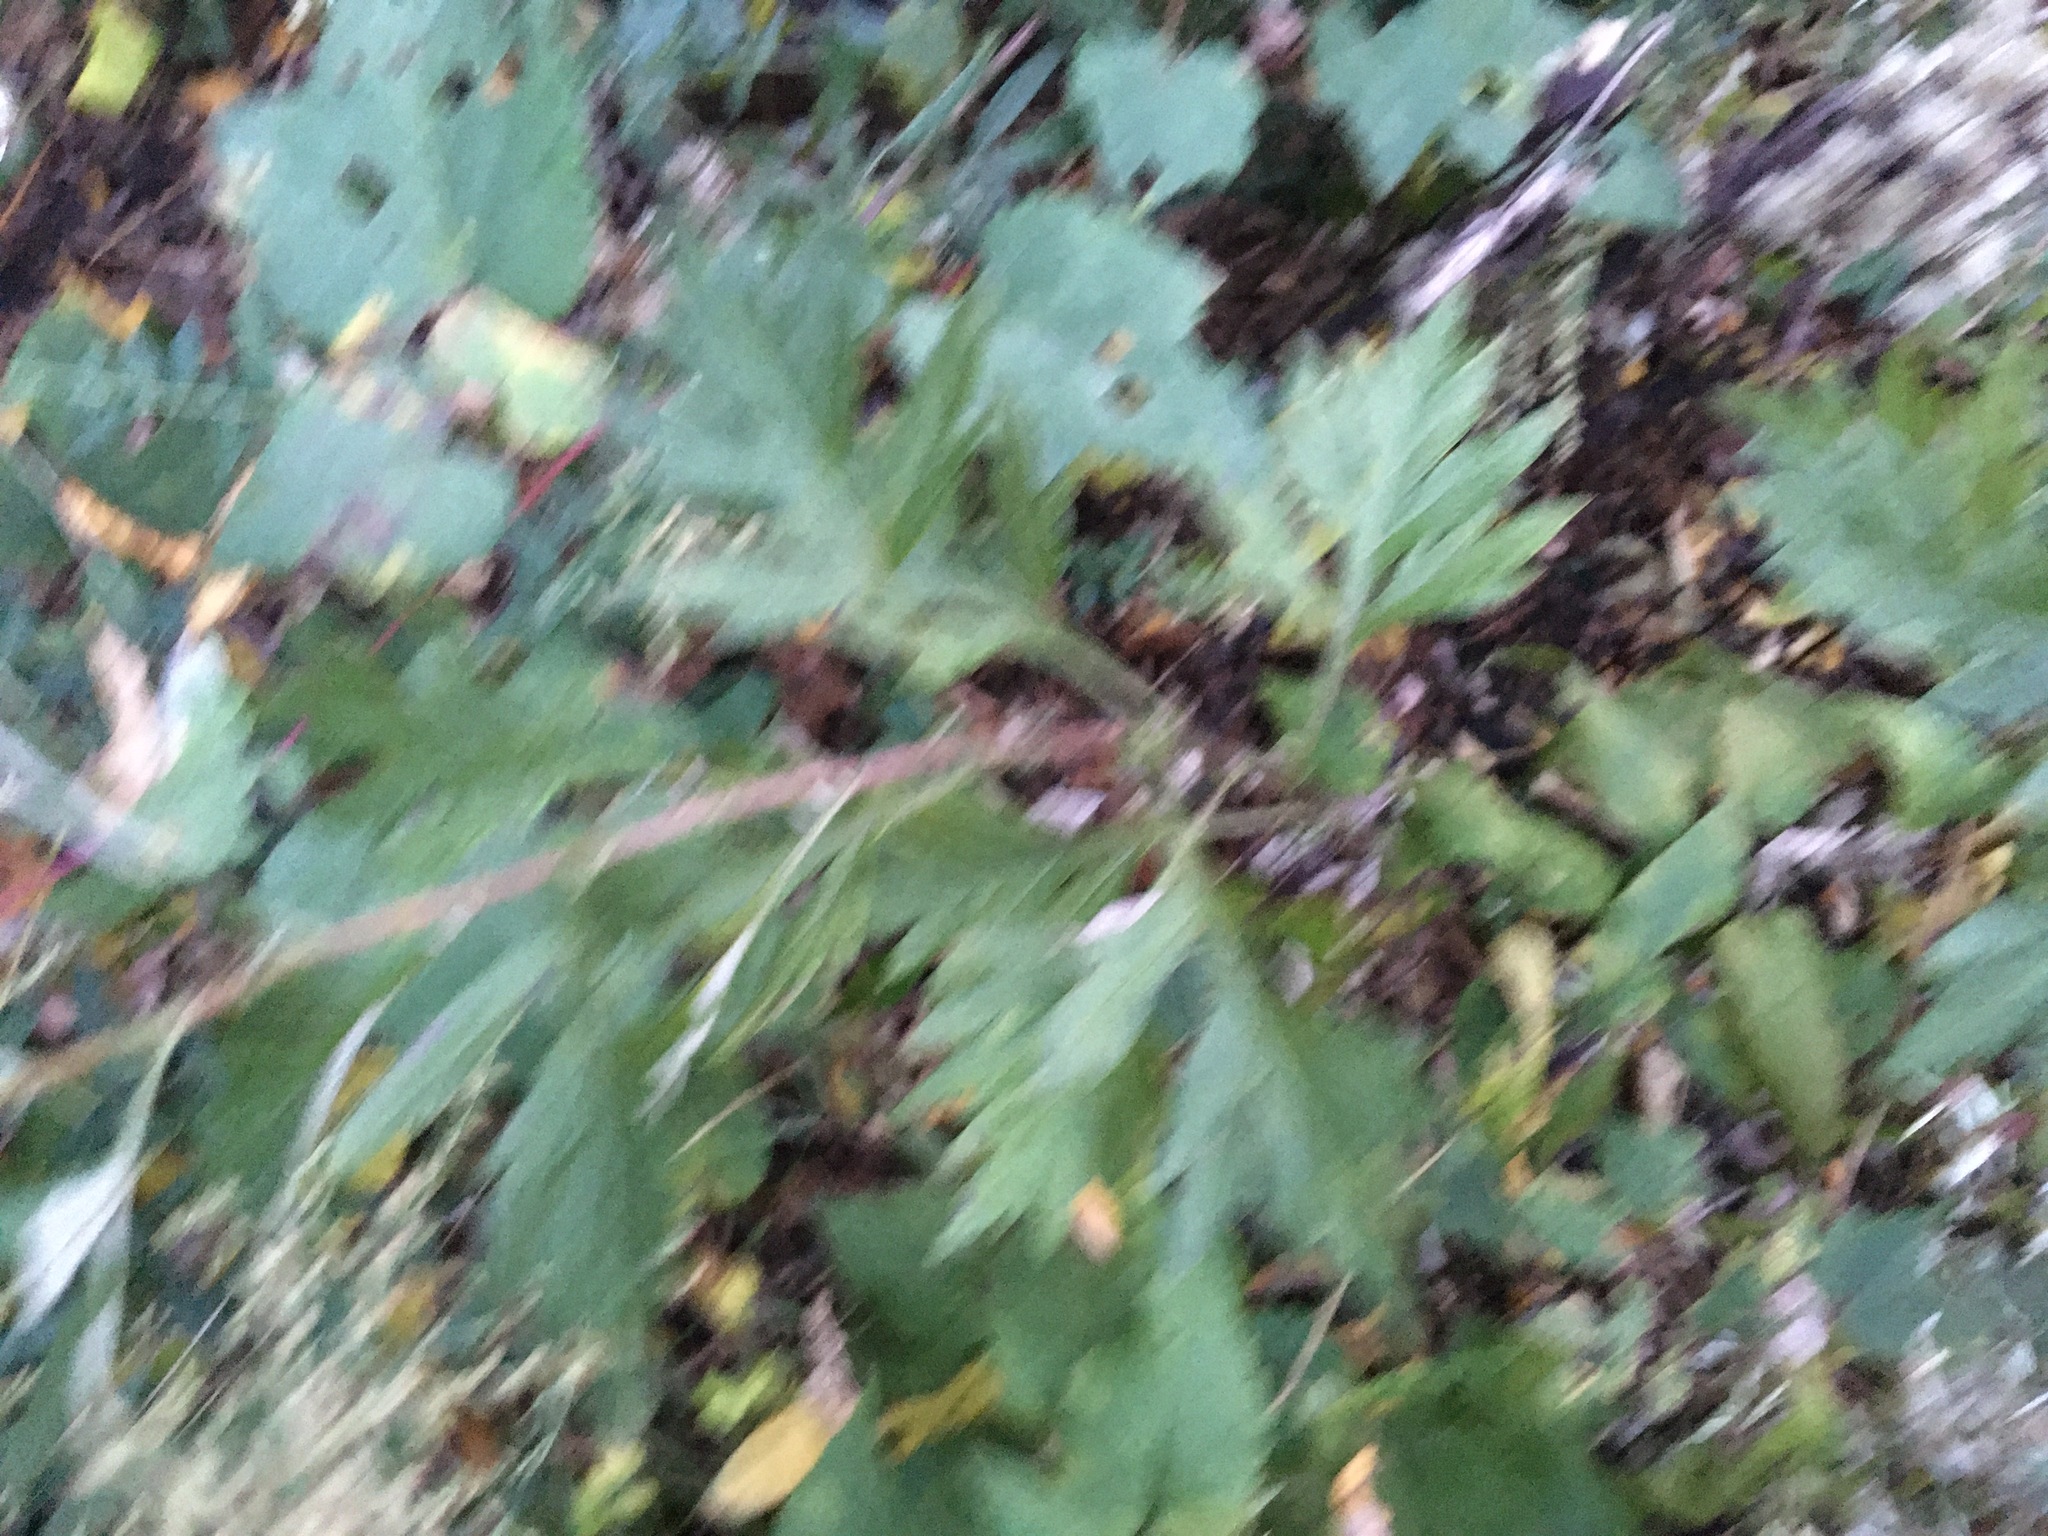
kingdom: Plantae
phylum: Tracheophyta
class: Magnoliopsida
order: Asterales
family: Asteraceae
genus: Artemisia
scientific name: Artemisia vulgaris
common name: Mugwort
